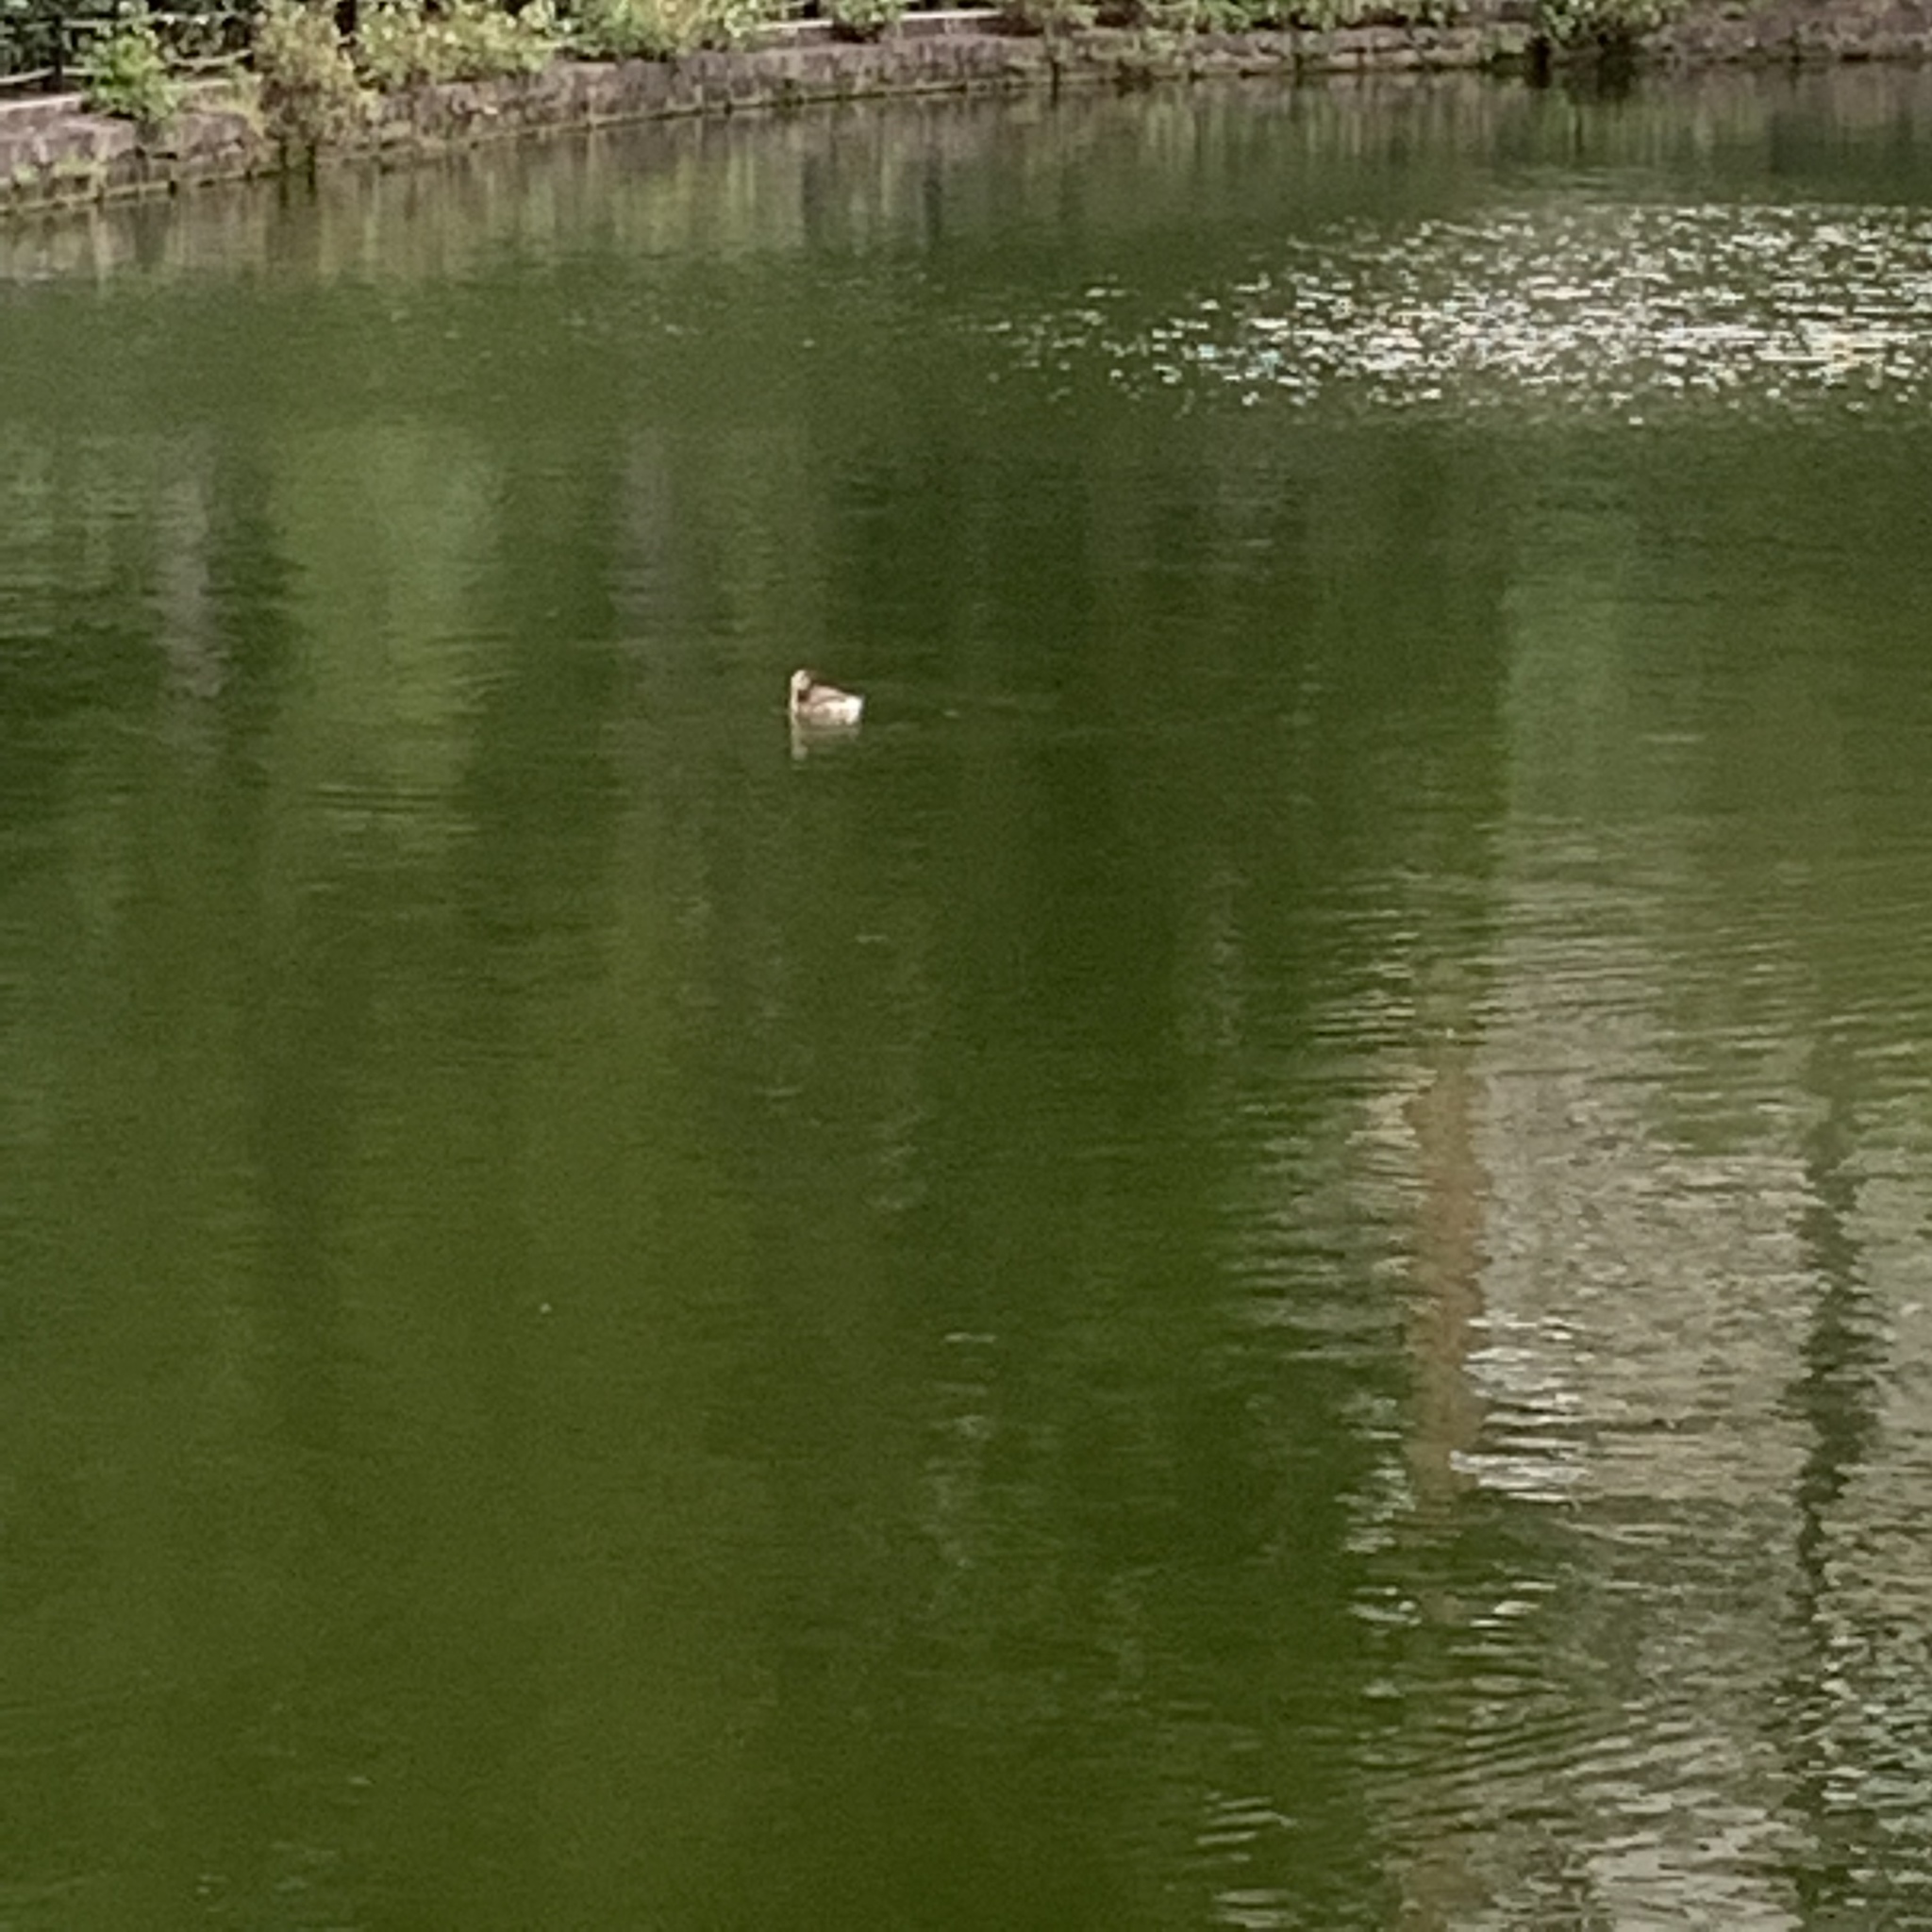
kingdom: Animalia
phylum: Chordata
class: Aves
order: Podicipediformes
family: Podicipedidae
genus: Tachybaptus
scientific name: Tachybaptus ruficollis
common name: Little grebe
